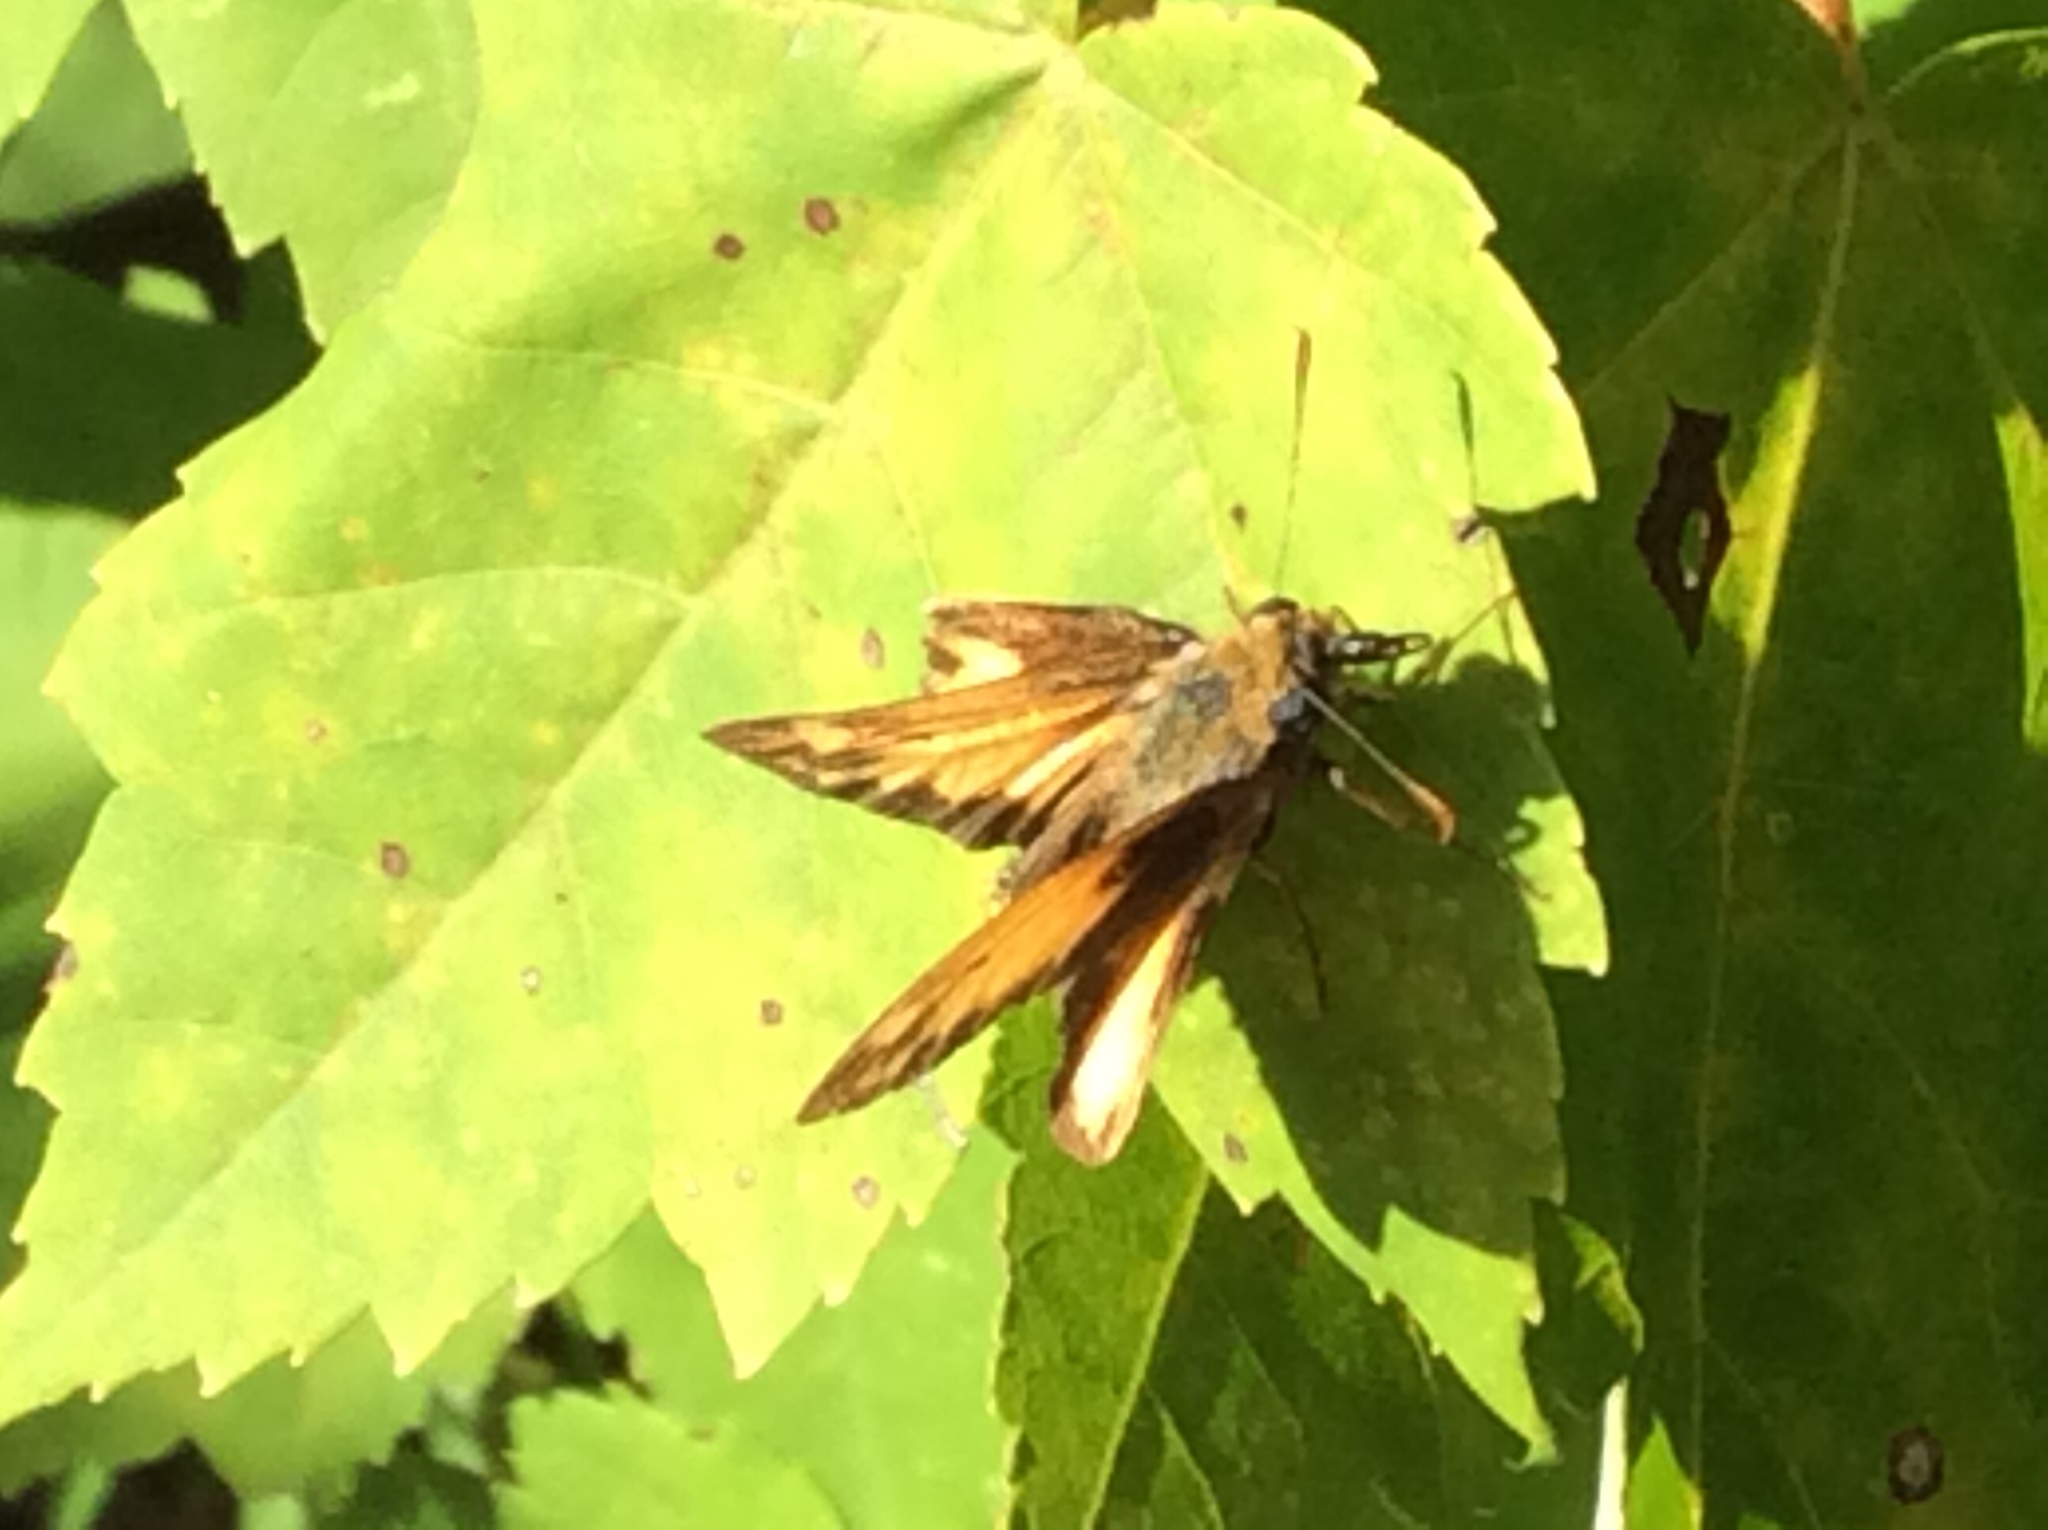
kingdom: Animalia
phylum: Arthropoda
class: Insecta
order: Lepidoptera
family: Hesperiidae
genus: Lon
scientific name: Lon zabulon
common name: Zabulon skipper
